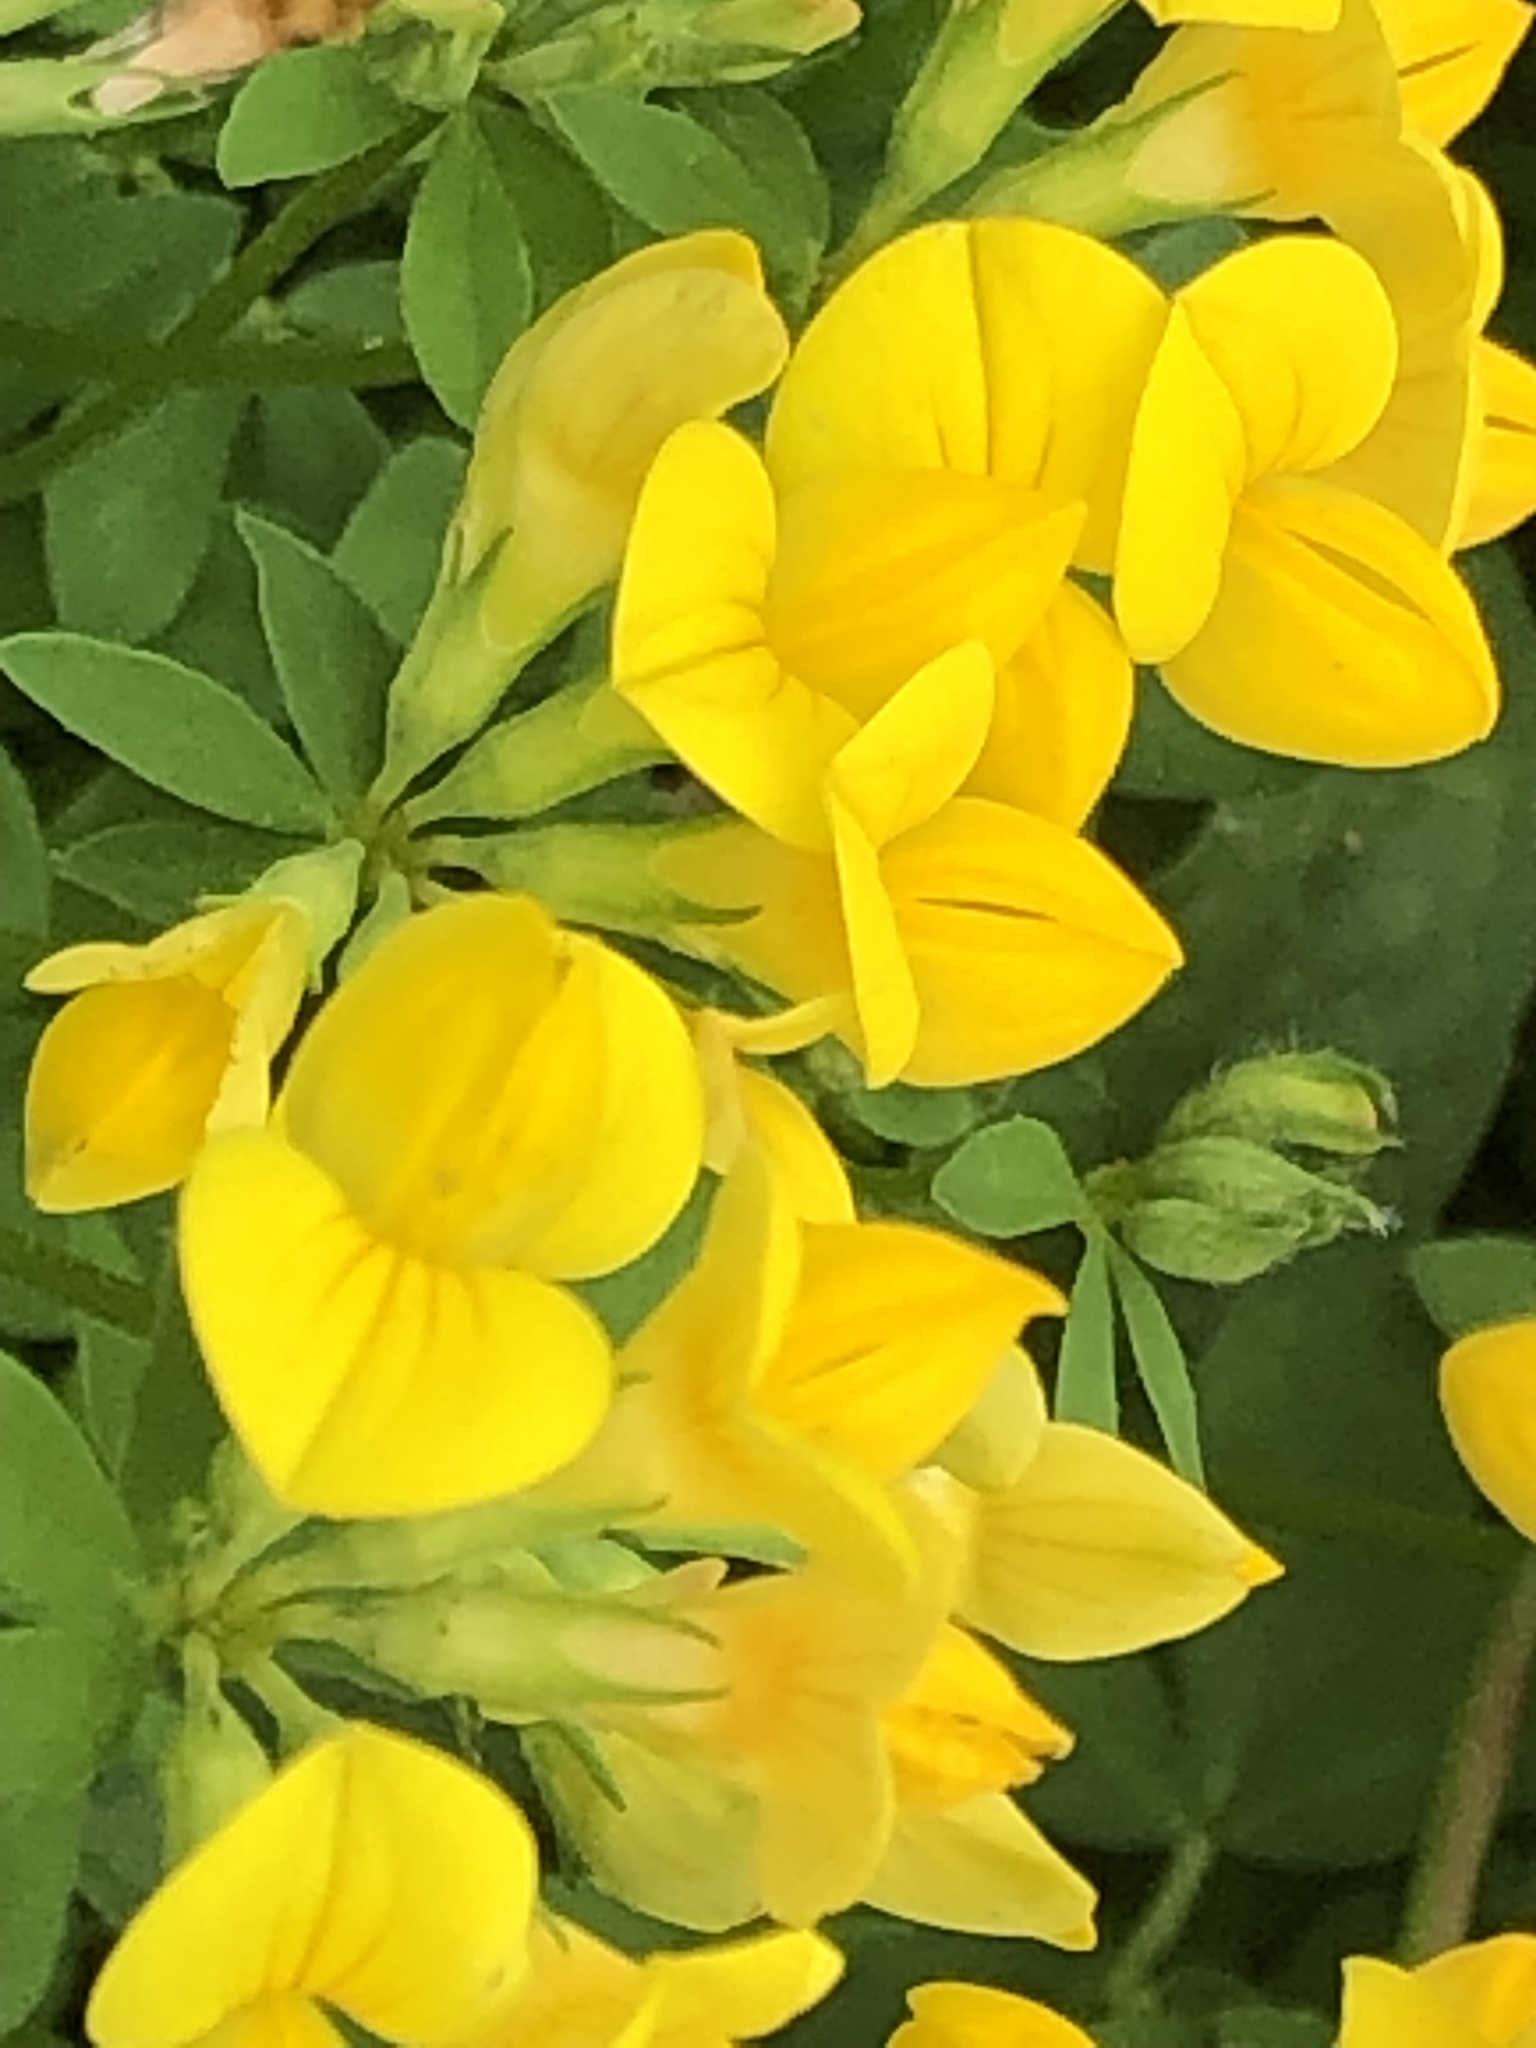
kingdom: Plantae
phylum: Tracheophyta
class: Magnoliopsida
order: Fabales
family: Fabaceae
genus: Lotus
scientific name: Lotus corniculatus
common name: Common bird's-foot-trefoil
